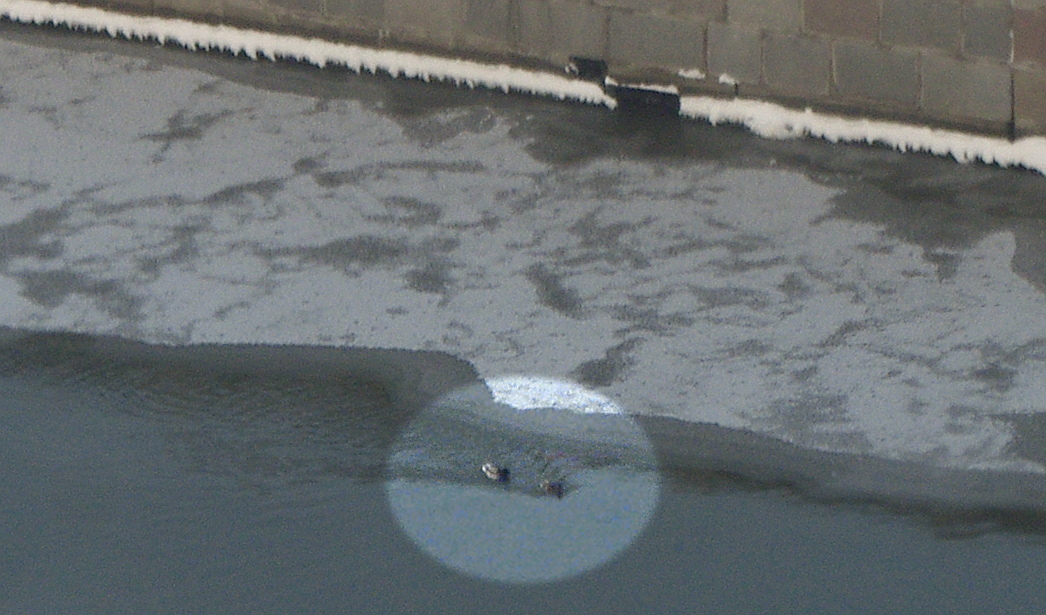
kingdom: Animalia
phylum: Chordata
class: Aves
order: Anseriformes
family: Anatidae
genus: Anas
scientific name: Anas platyrhynchos
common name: Mallard
